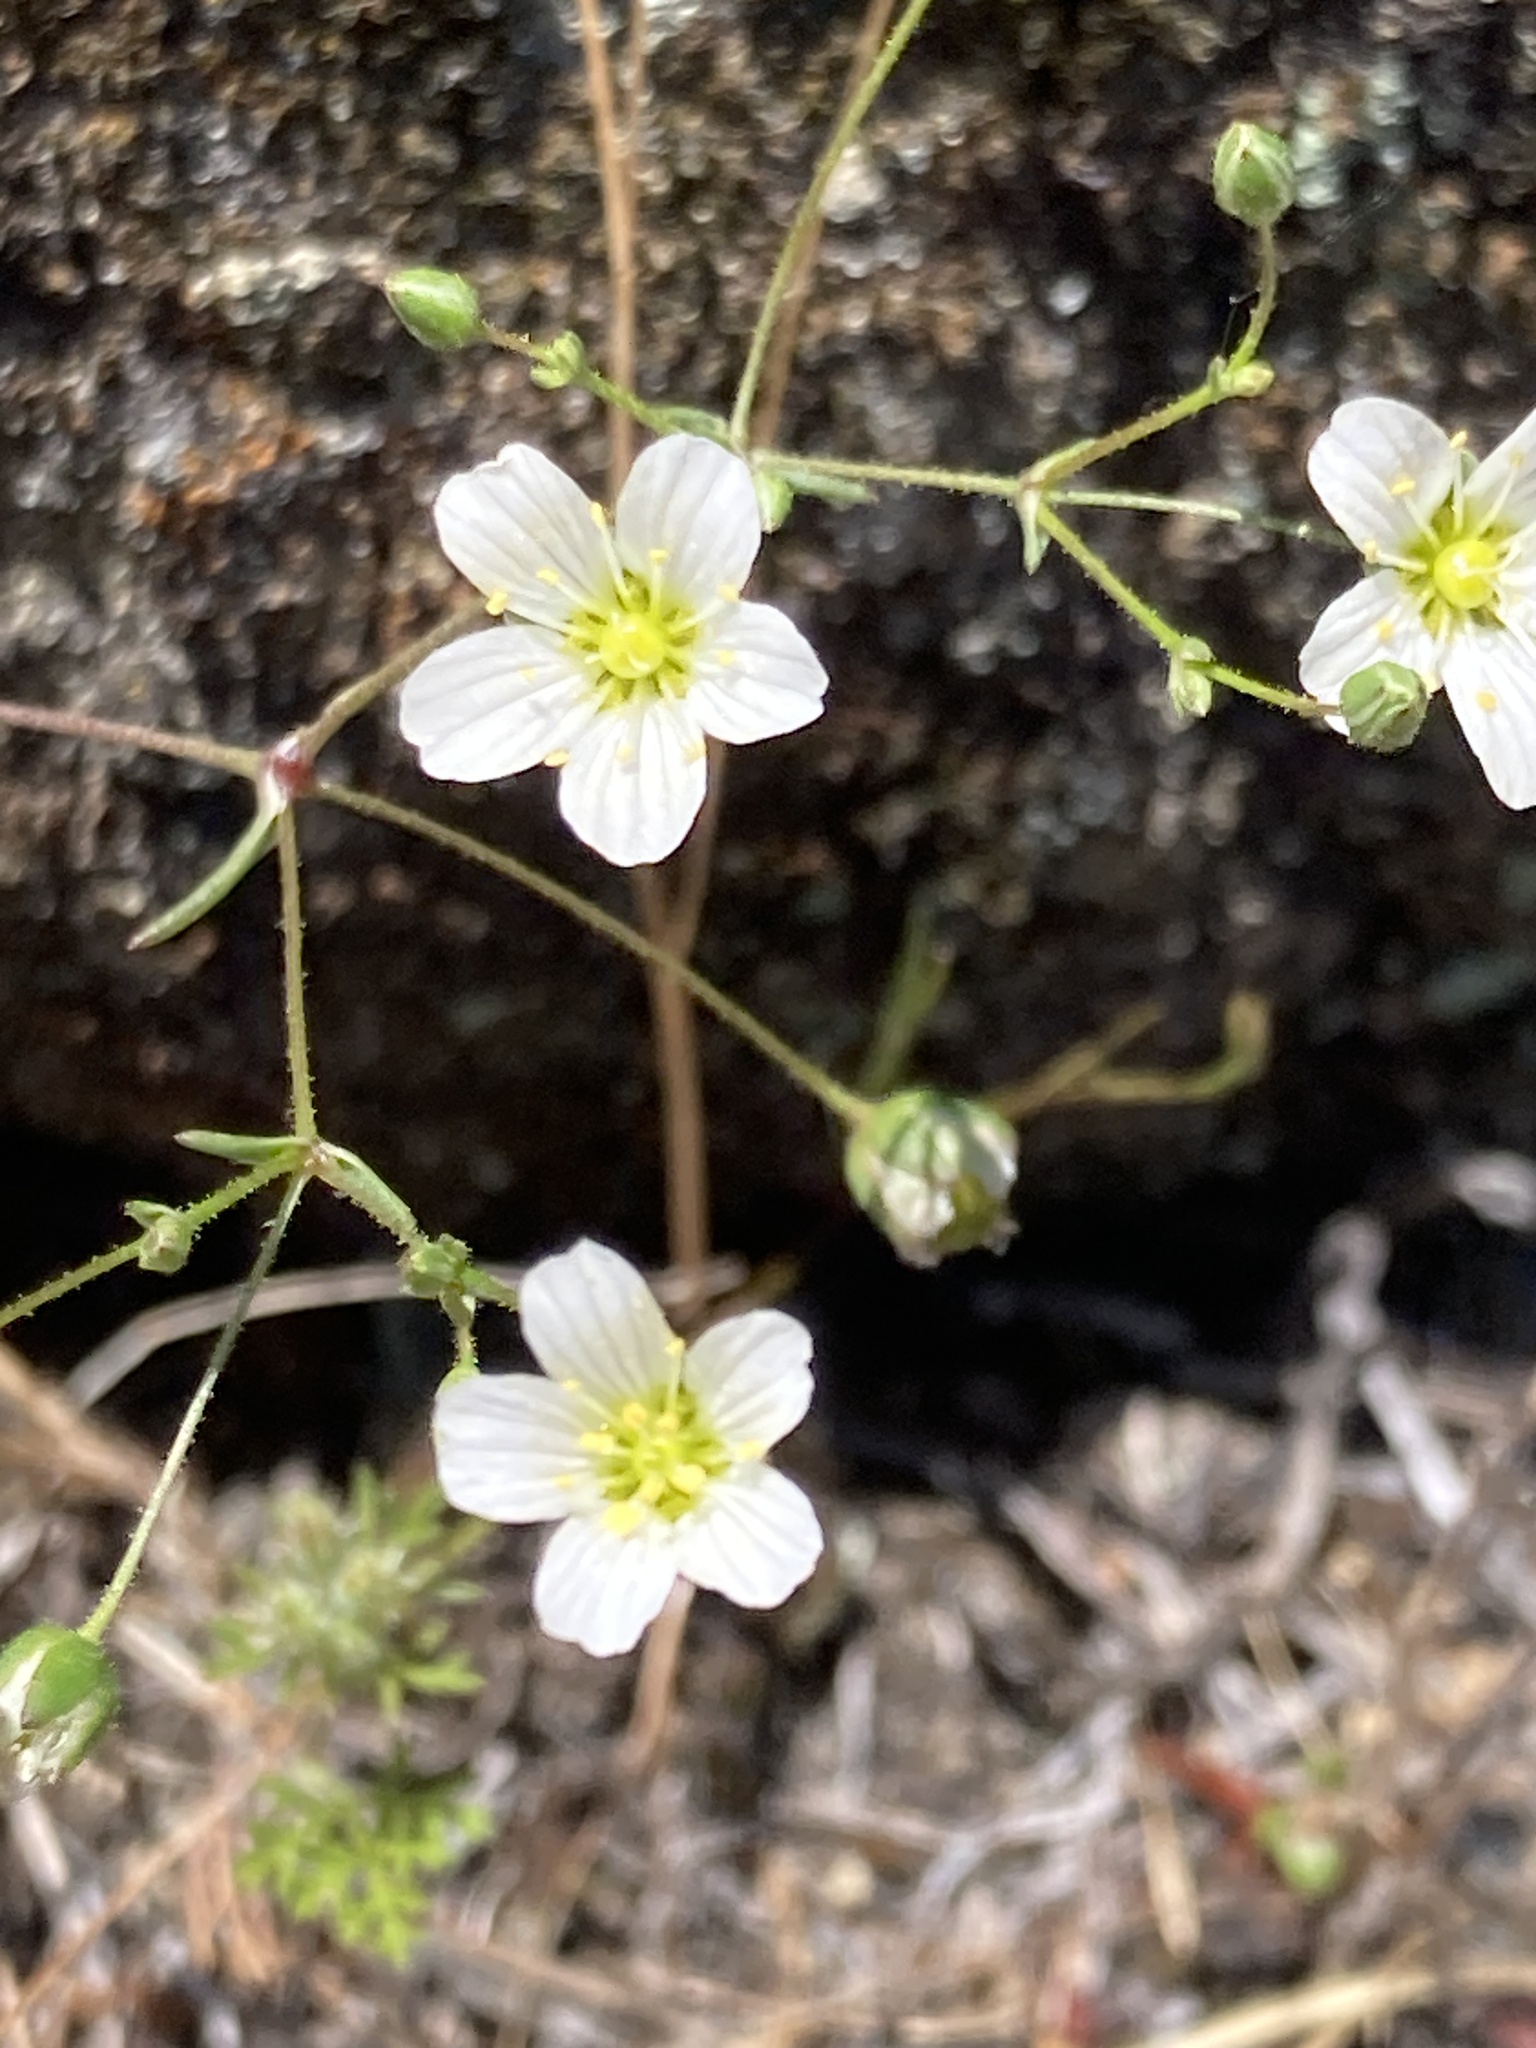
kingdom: Plantae
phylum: Tracheophyta
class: Magnoliopsida
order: Caryophyllales
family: Caryophyllaceae
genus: Sabulina
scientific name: Sabulina douglasii
